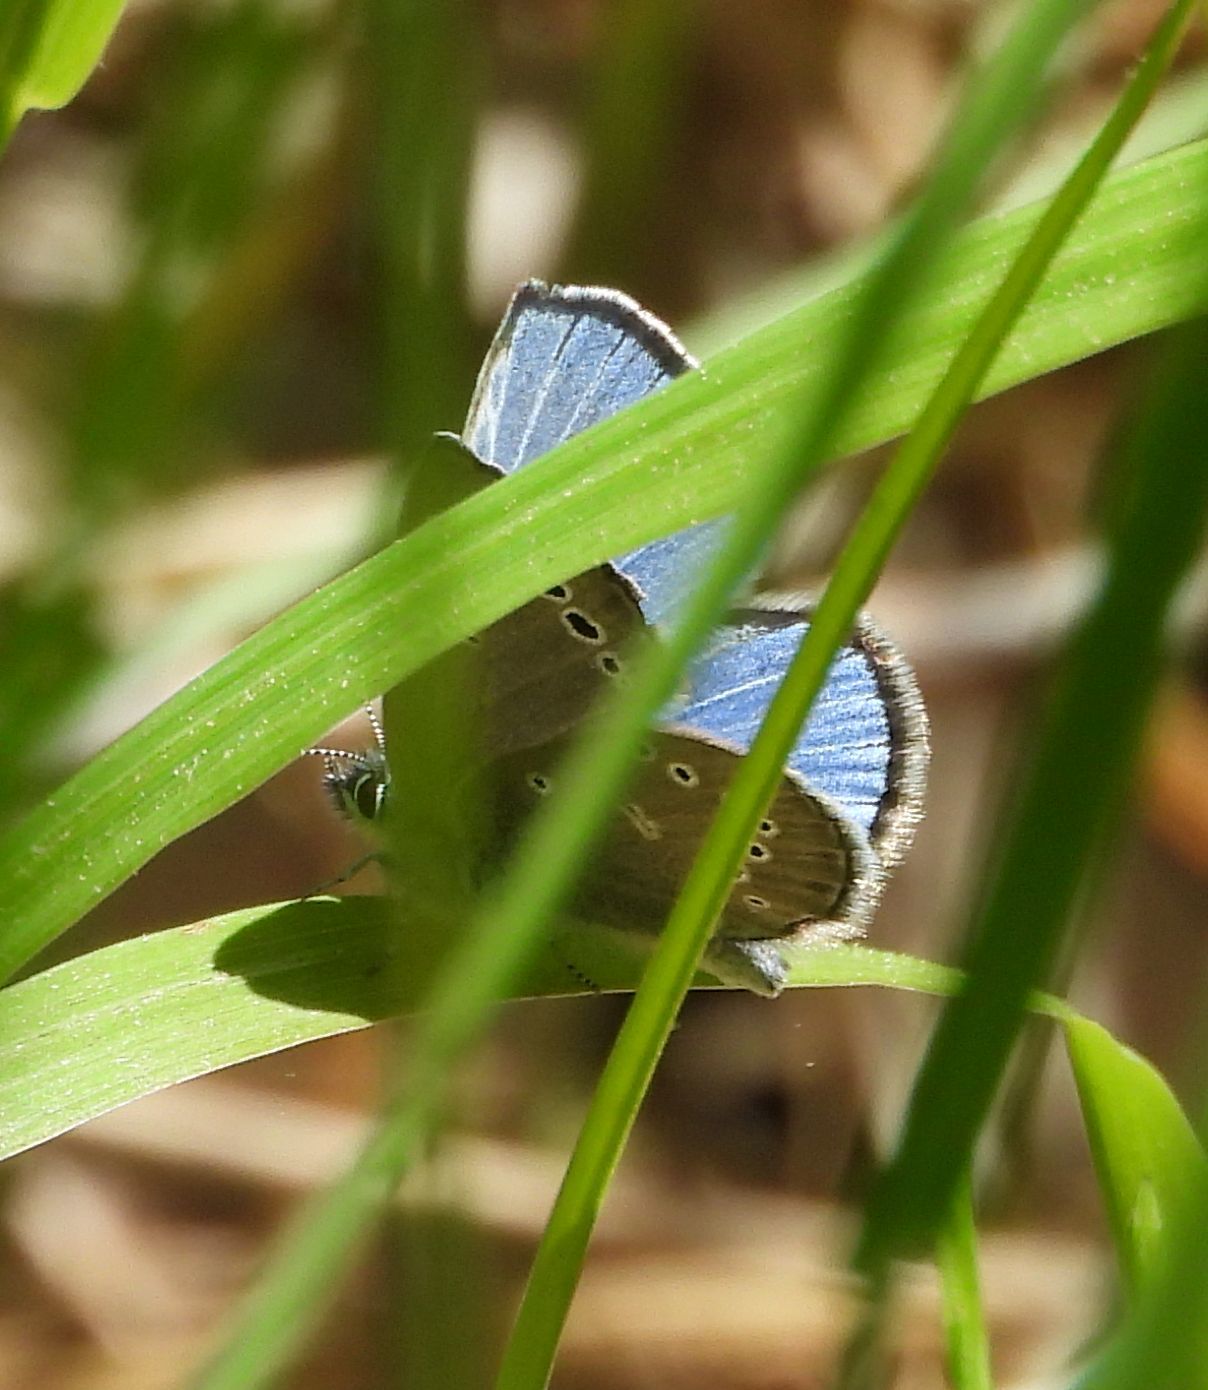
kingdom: Animalia
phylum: Arthropoda
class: Insecta
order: Lepidoptera
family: Lycaenidae
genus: Glaucopsyche
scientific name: Glaucopsyche lygdamus
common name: Silvery blue
